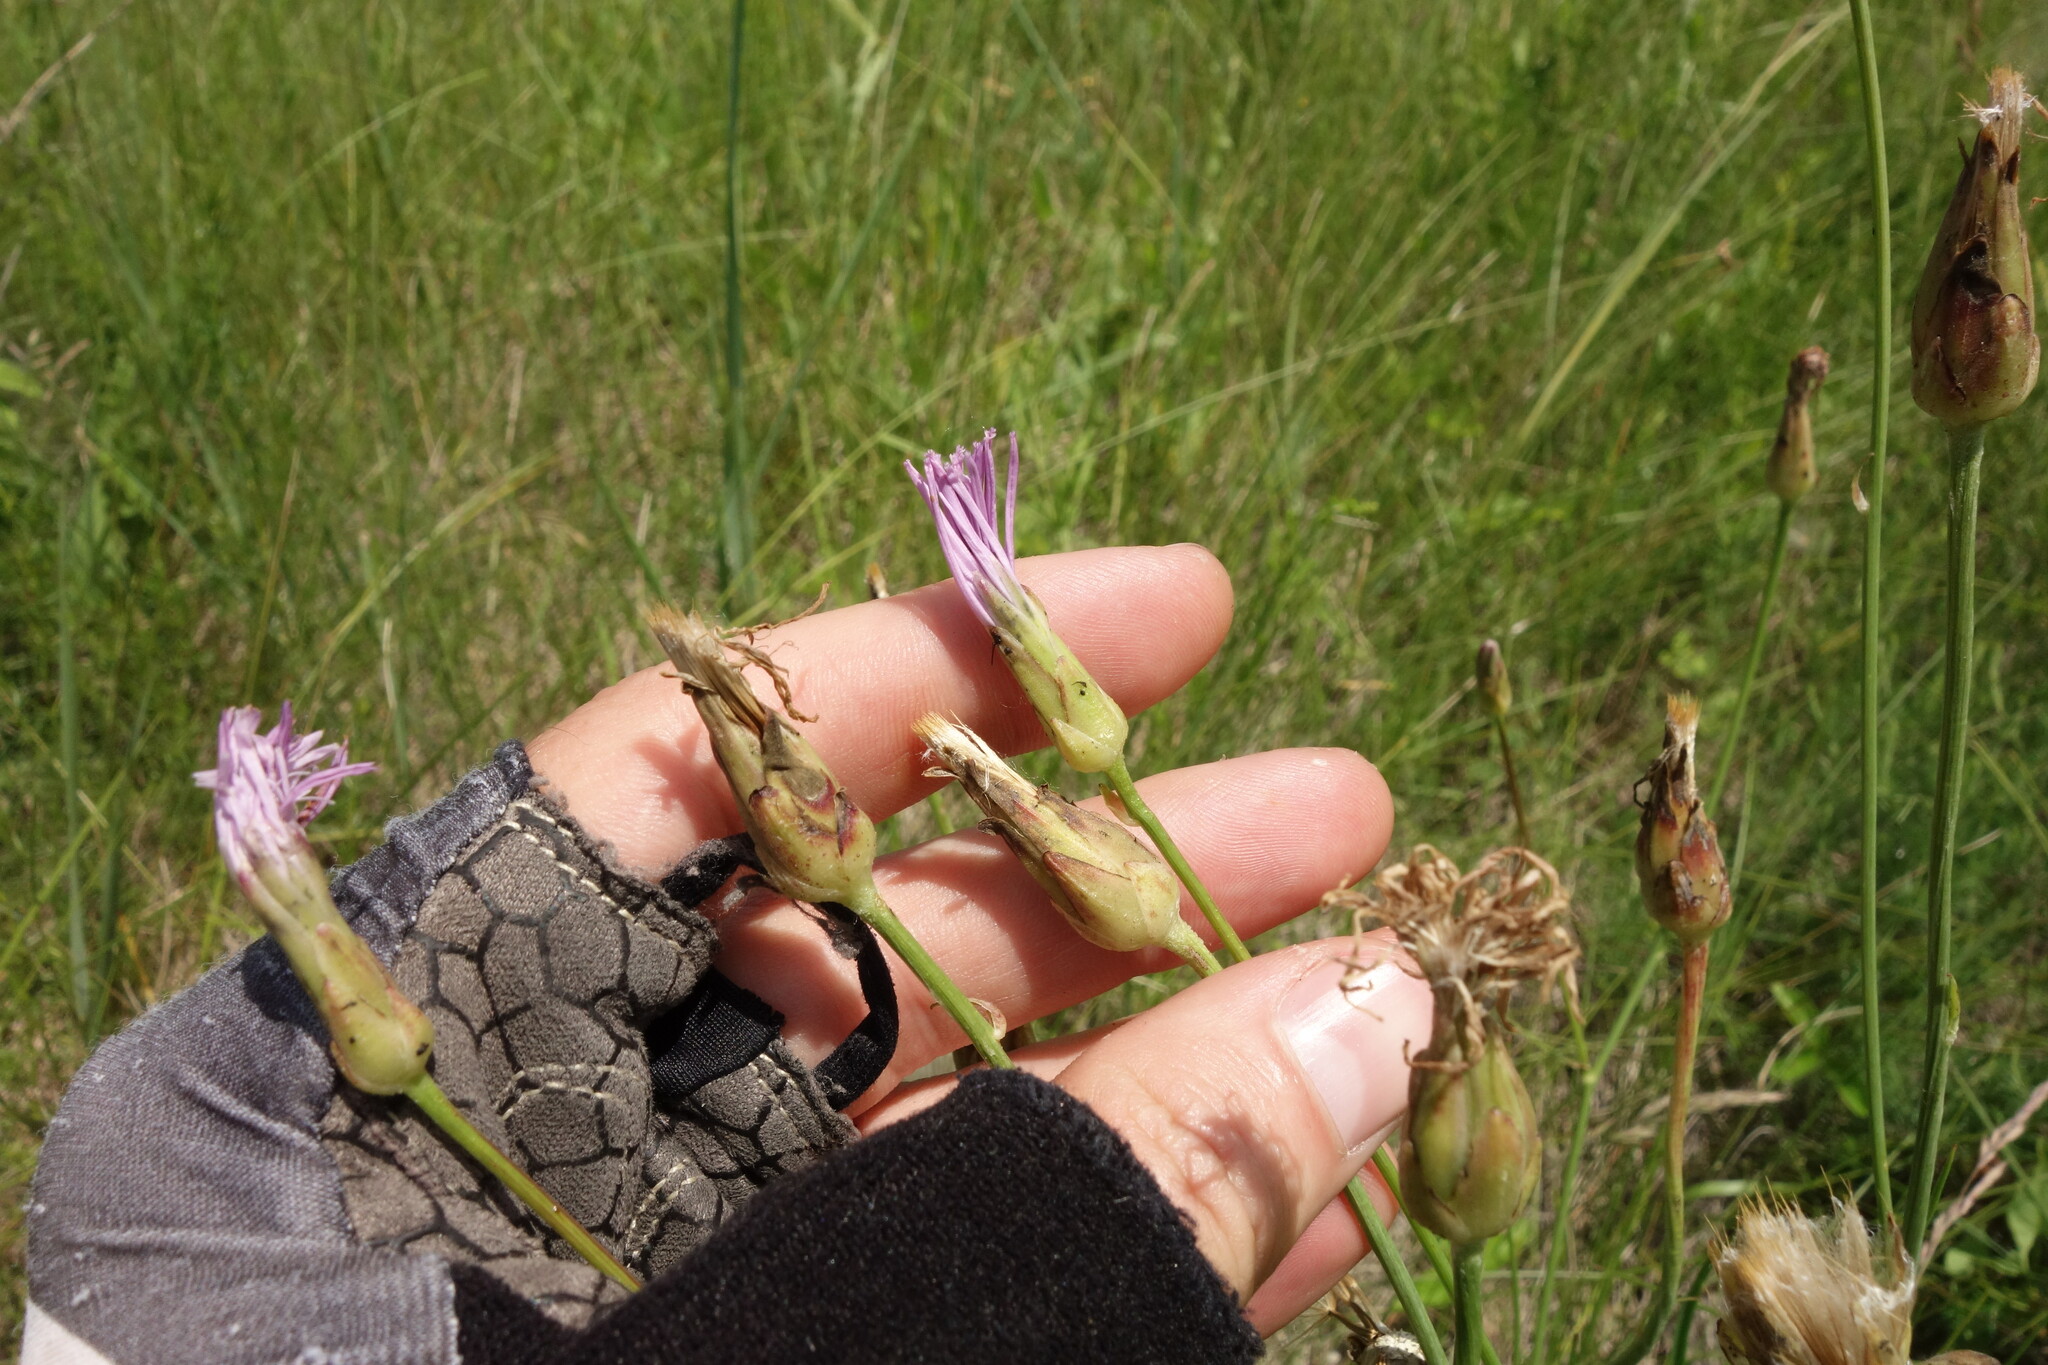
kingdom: Plantae
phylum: Tracheophyta
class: Magnoliopsida
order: Asterales
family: Asteraceae
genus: Scorzonera
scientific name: Scorzonera purpurea
